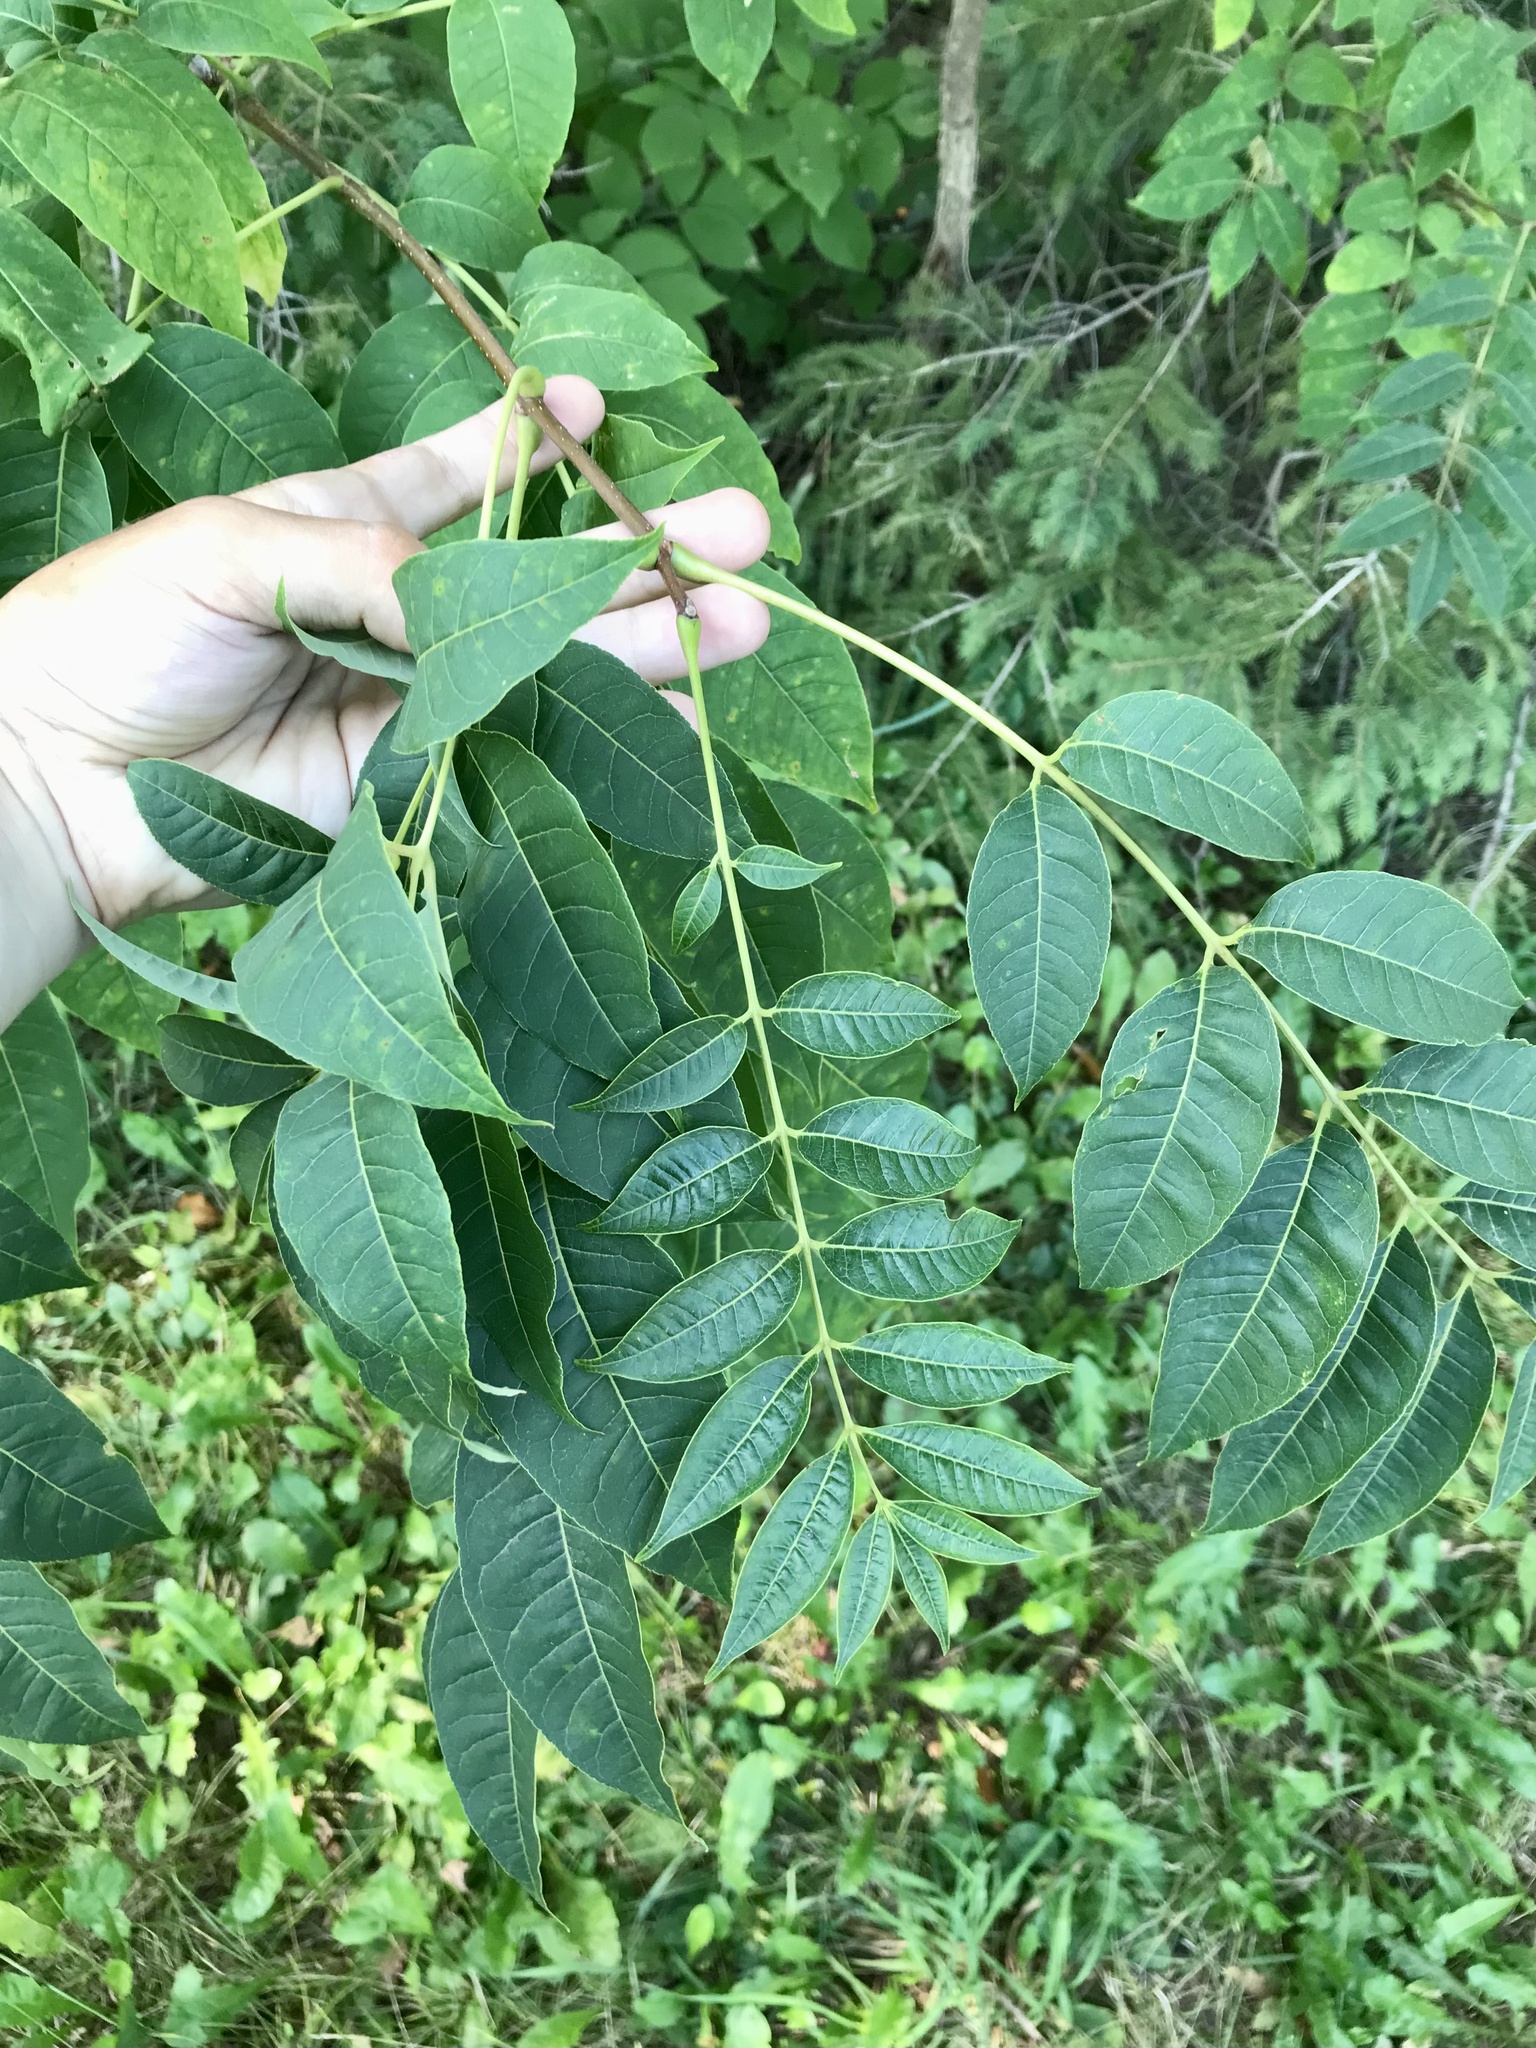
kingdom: Plantae
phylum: Tracheophyta
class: Magnoliopsida
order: Sapindales
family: Rutaceae
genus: Phellodendron
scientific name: Phellodendron amurense
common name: Amur corktree
